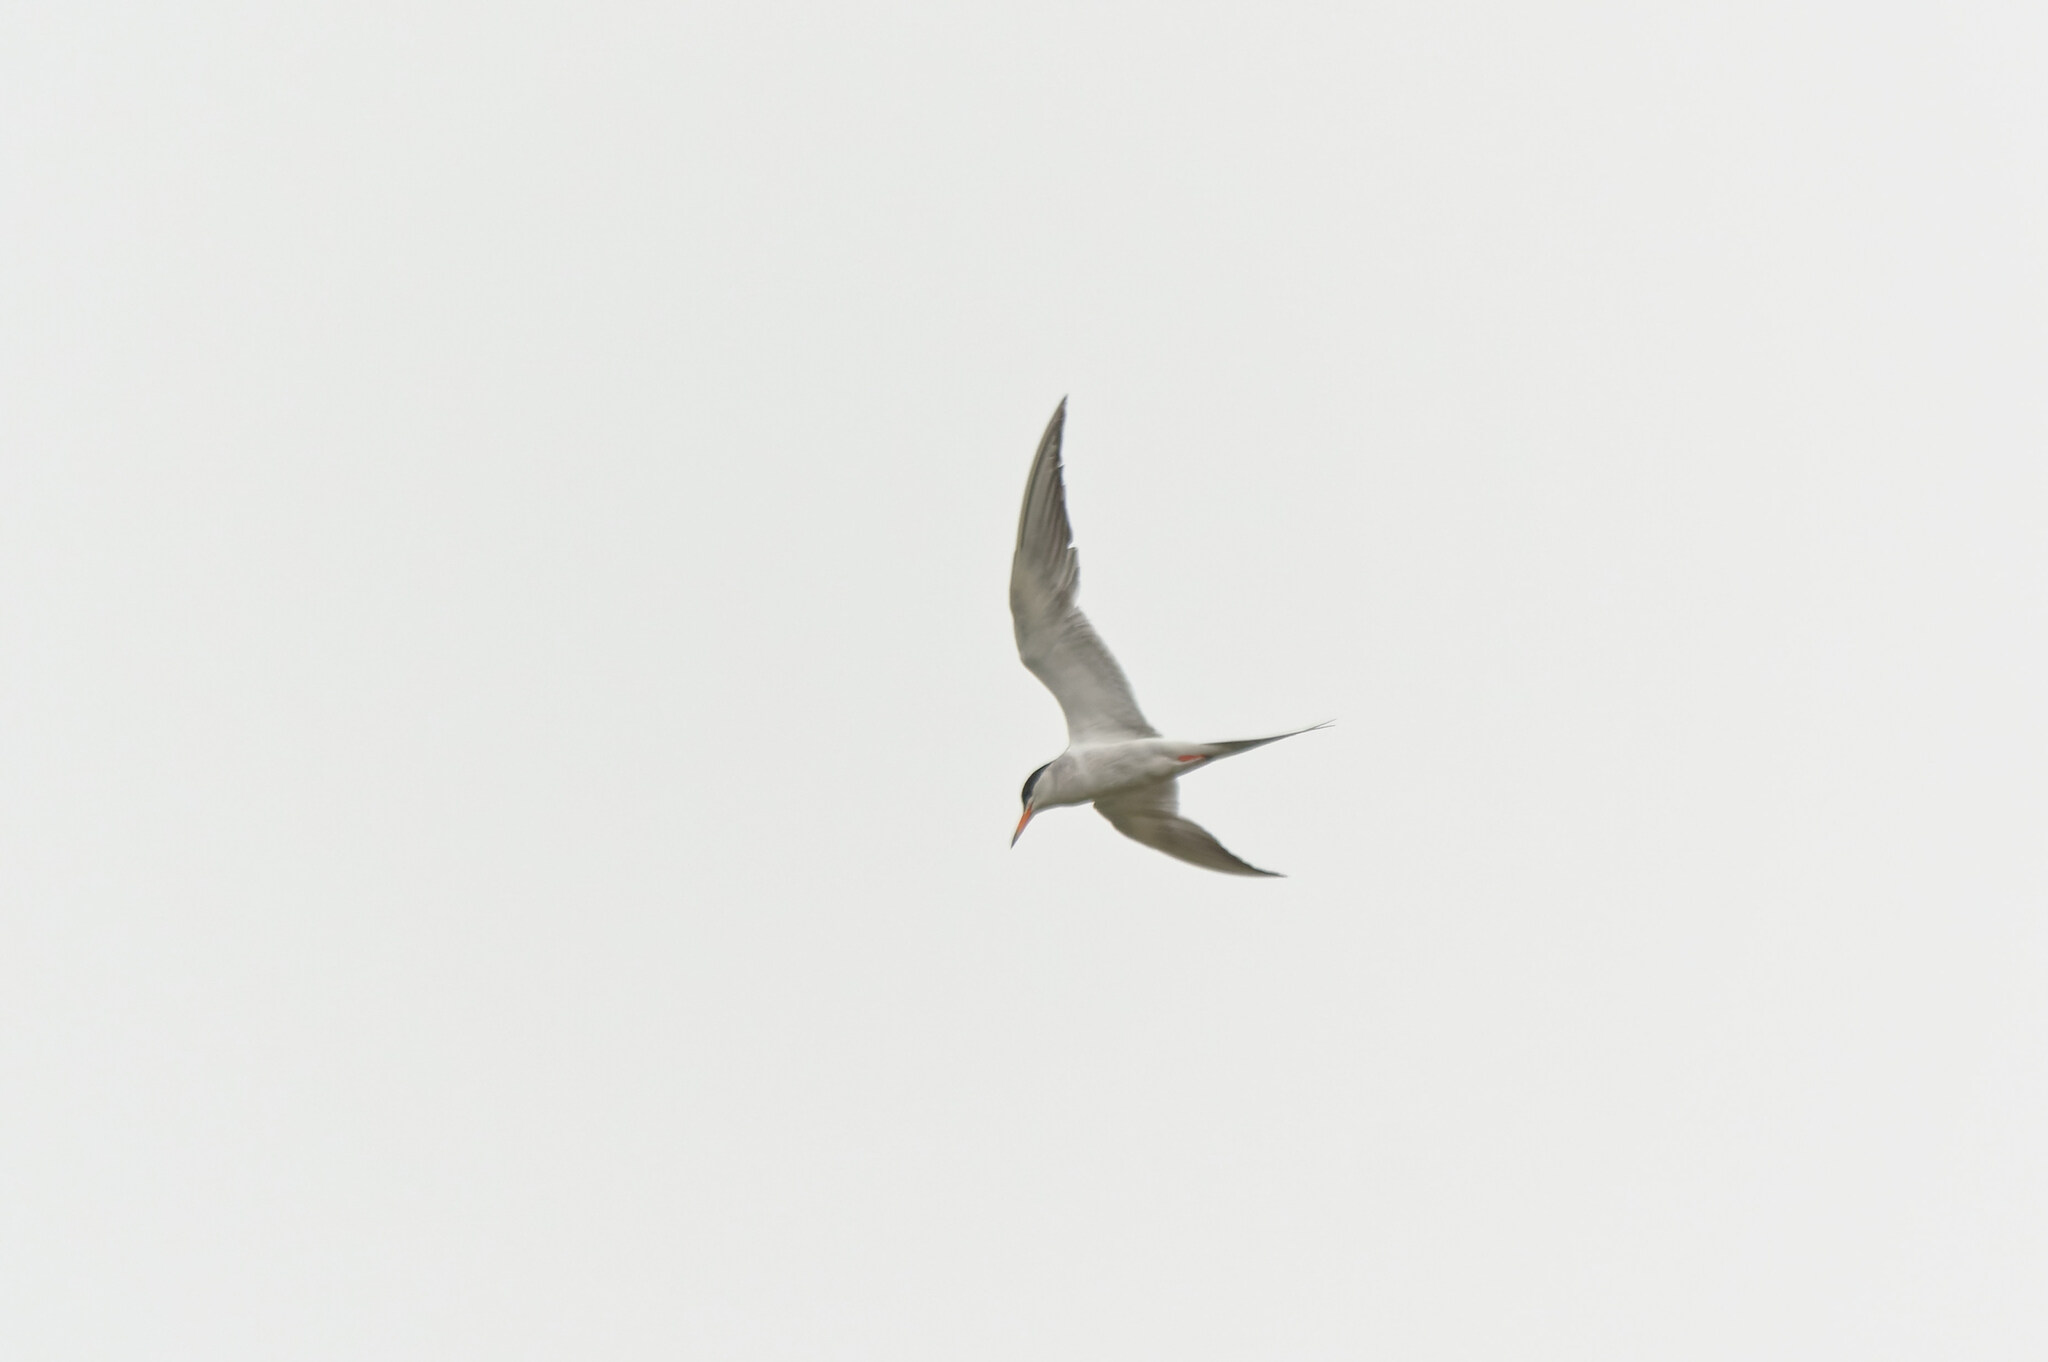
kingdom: Animalia
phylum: Chordata
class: Aves
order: Charadriiformes
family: Laridae
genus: Sterna
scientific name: Sterna forsteri
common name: Forster's tern
